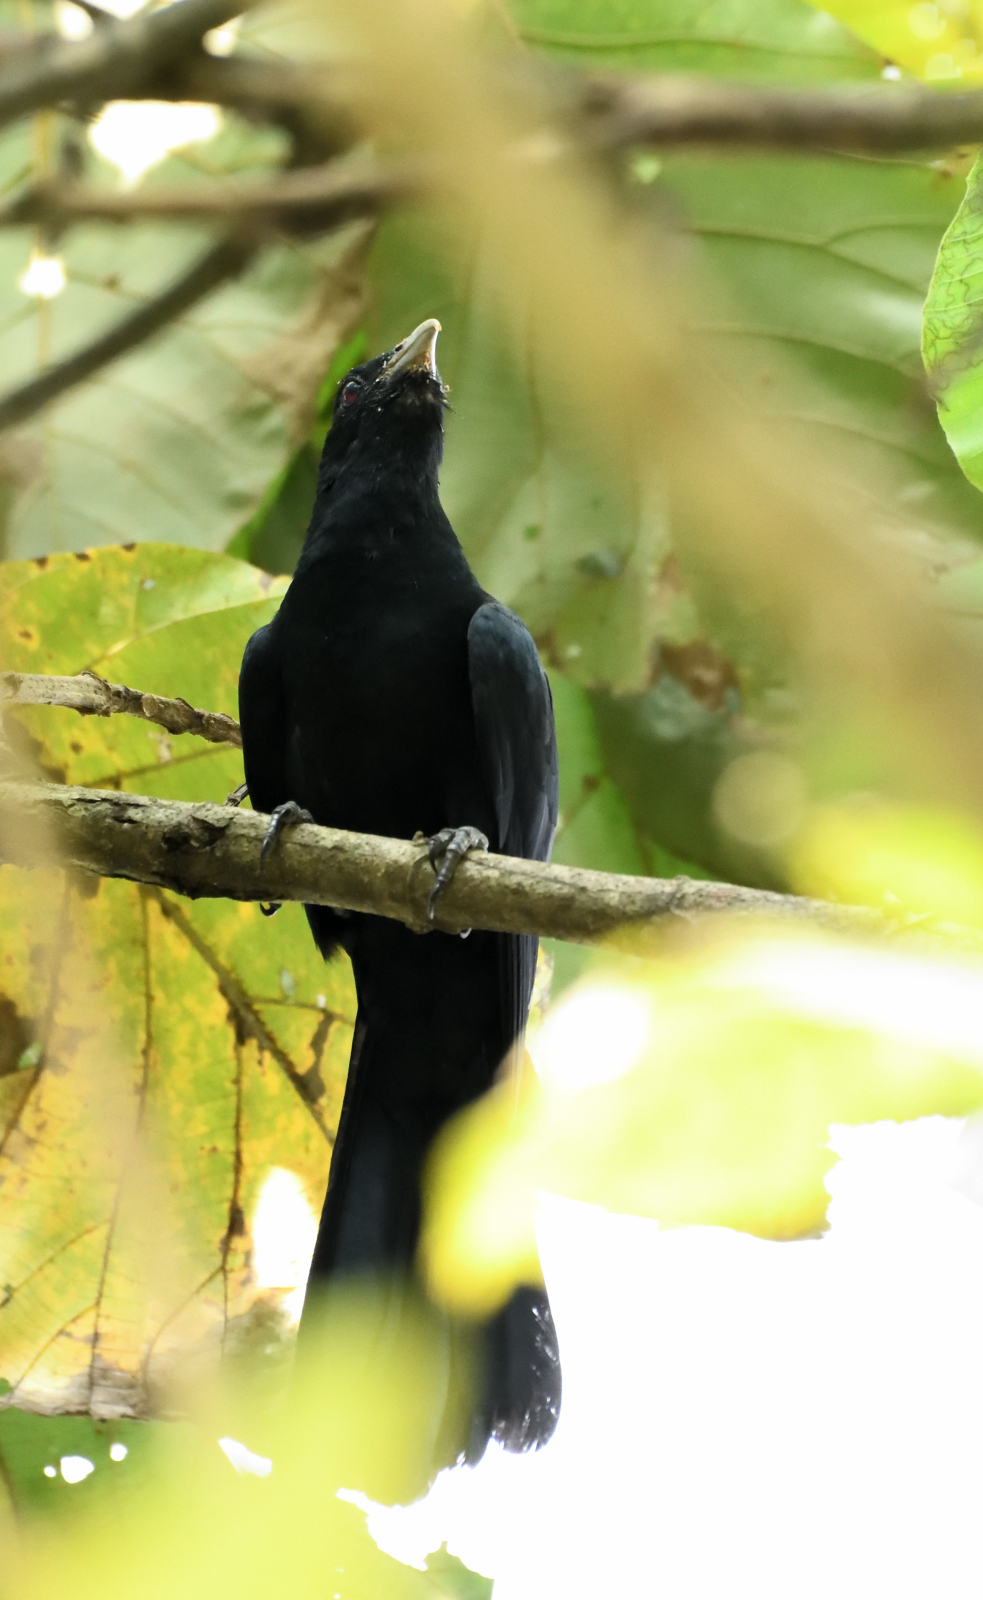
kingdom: Animalia
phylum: Chordata
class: Aves
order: Cuculiformes
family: Cuculidae
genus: Eudynamys
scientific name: Eudynamys scolopaceus
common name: Asian koel
